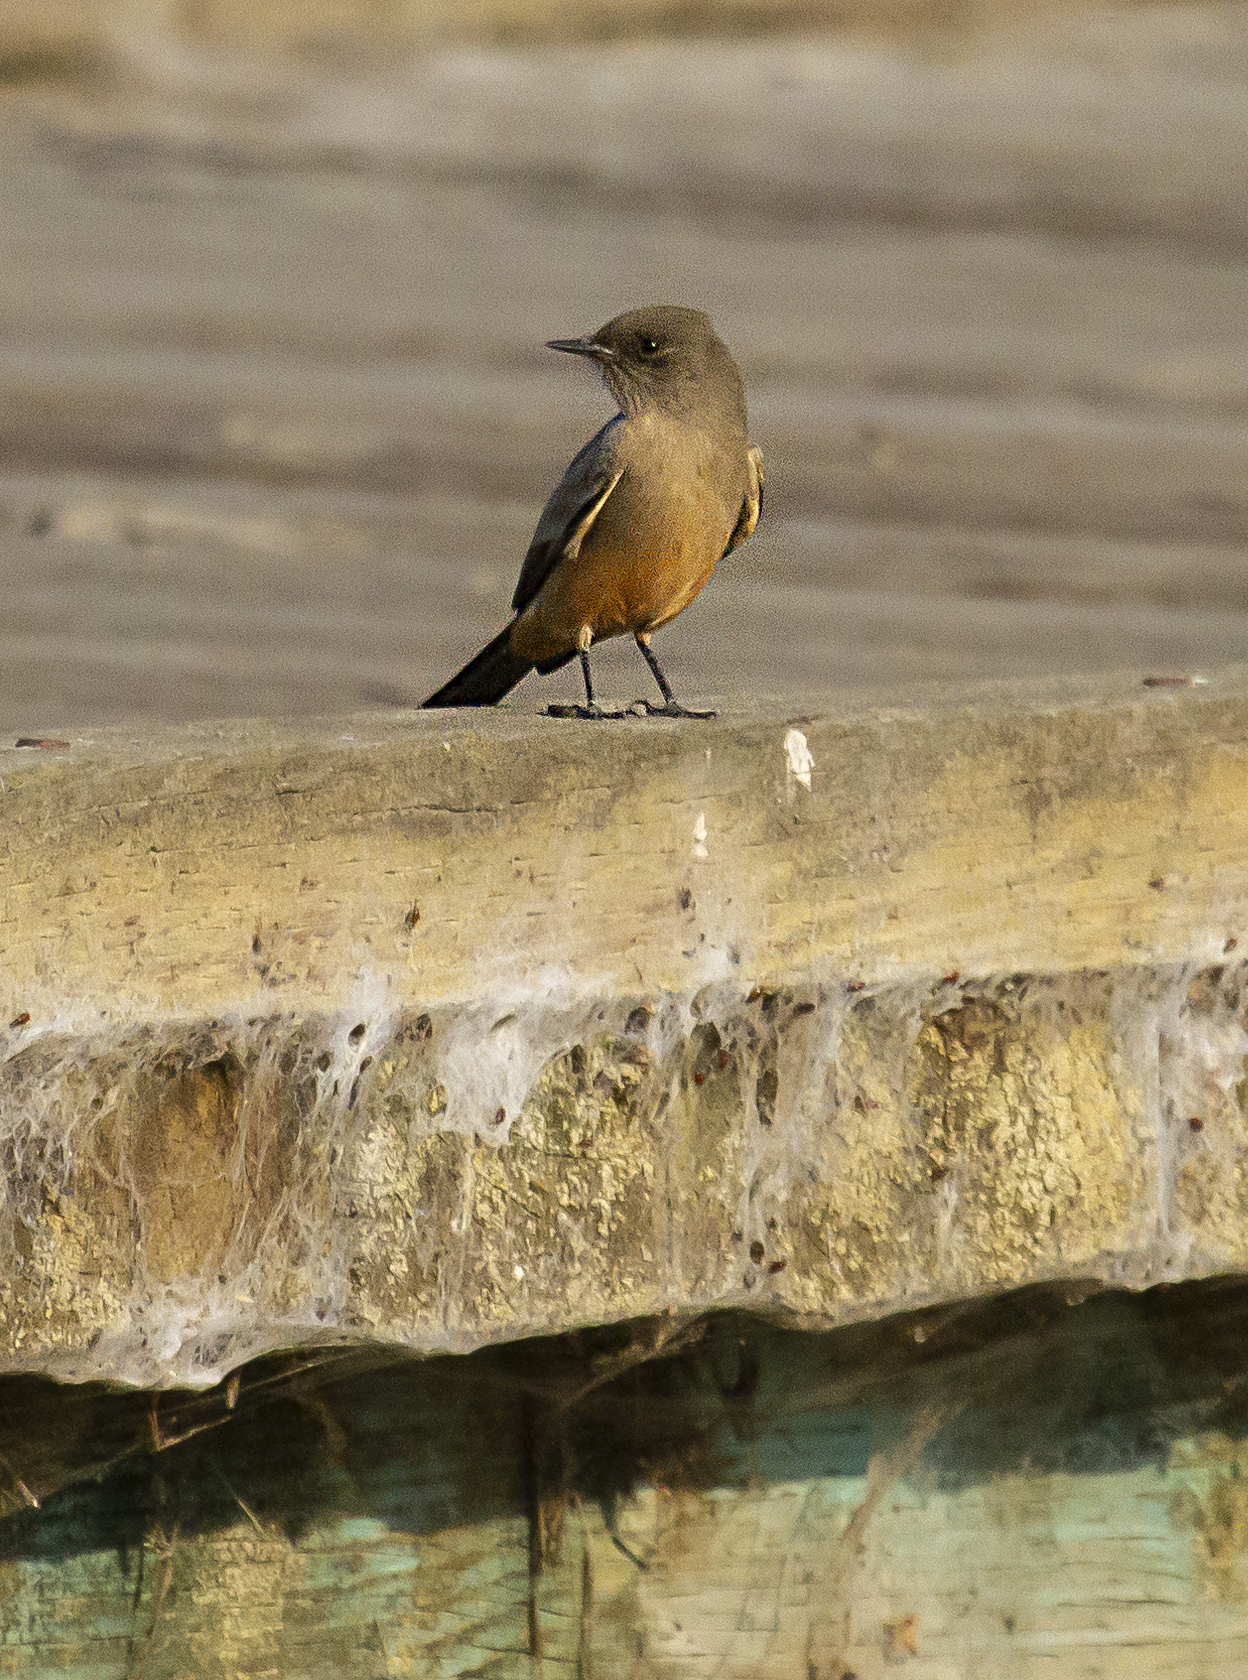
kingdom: Animalia
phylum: Chordata
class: Aves
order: Passeriformes
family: Tyrannidae
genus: Sayornis
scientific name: Sayornis saya
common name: Say's phoebe
